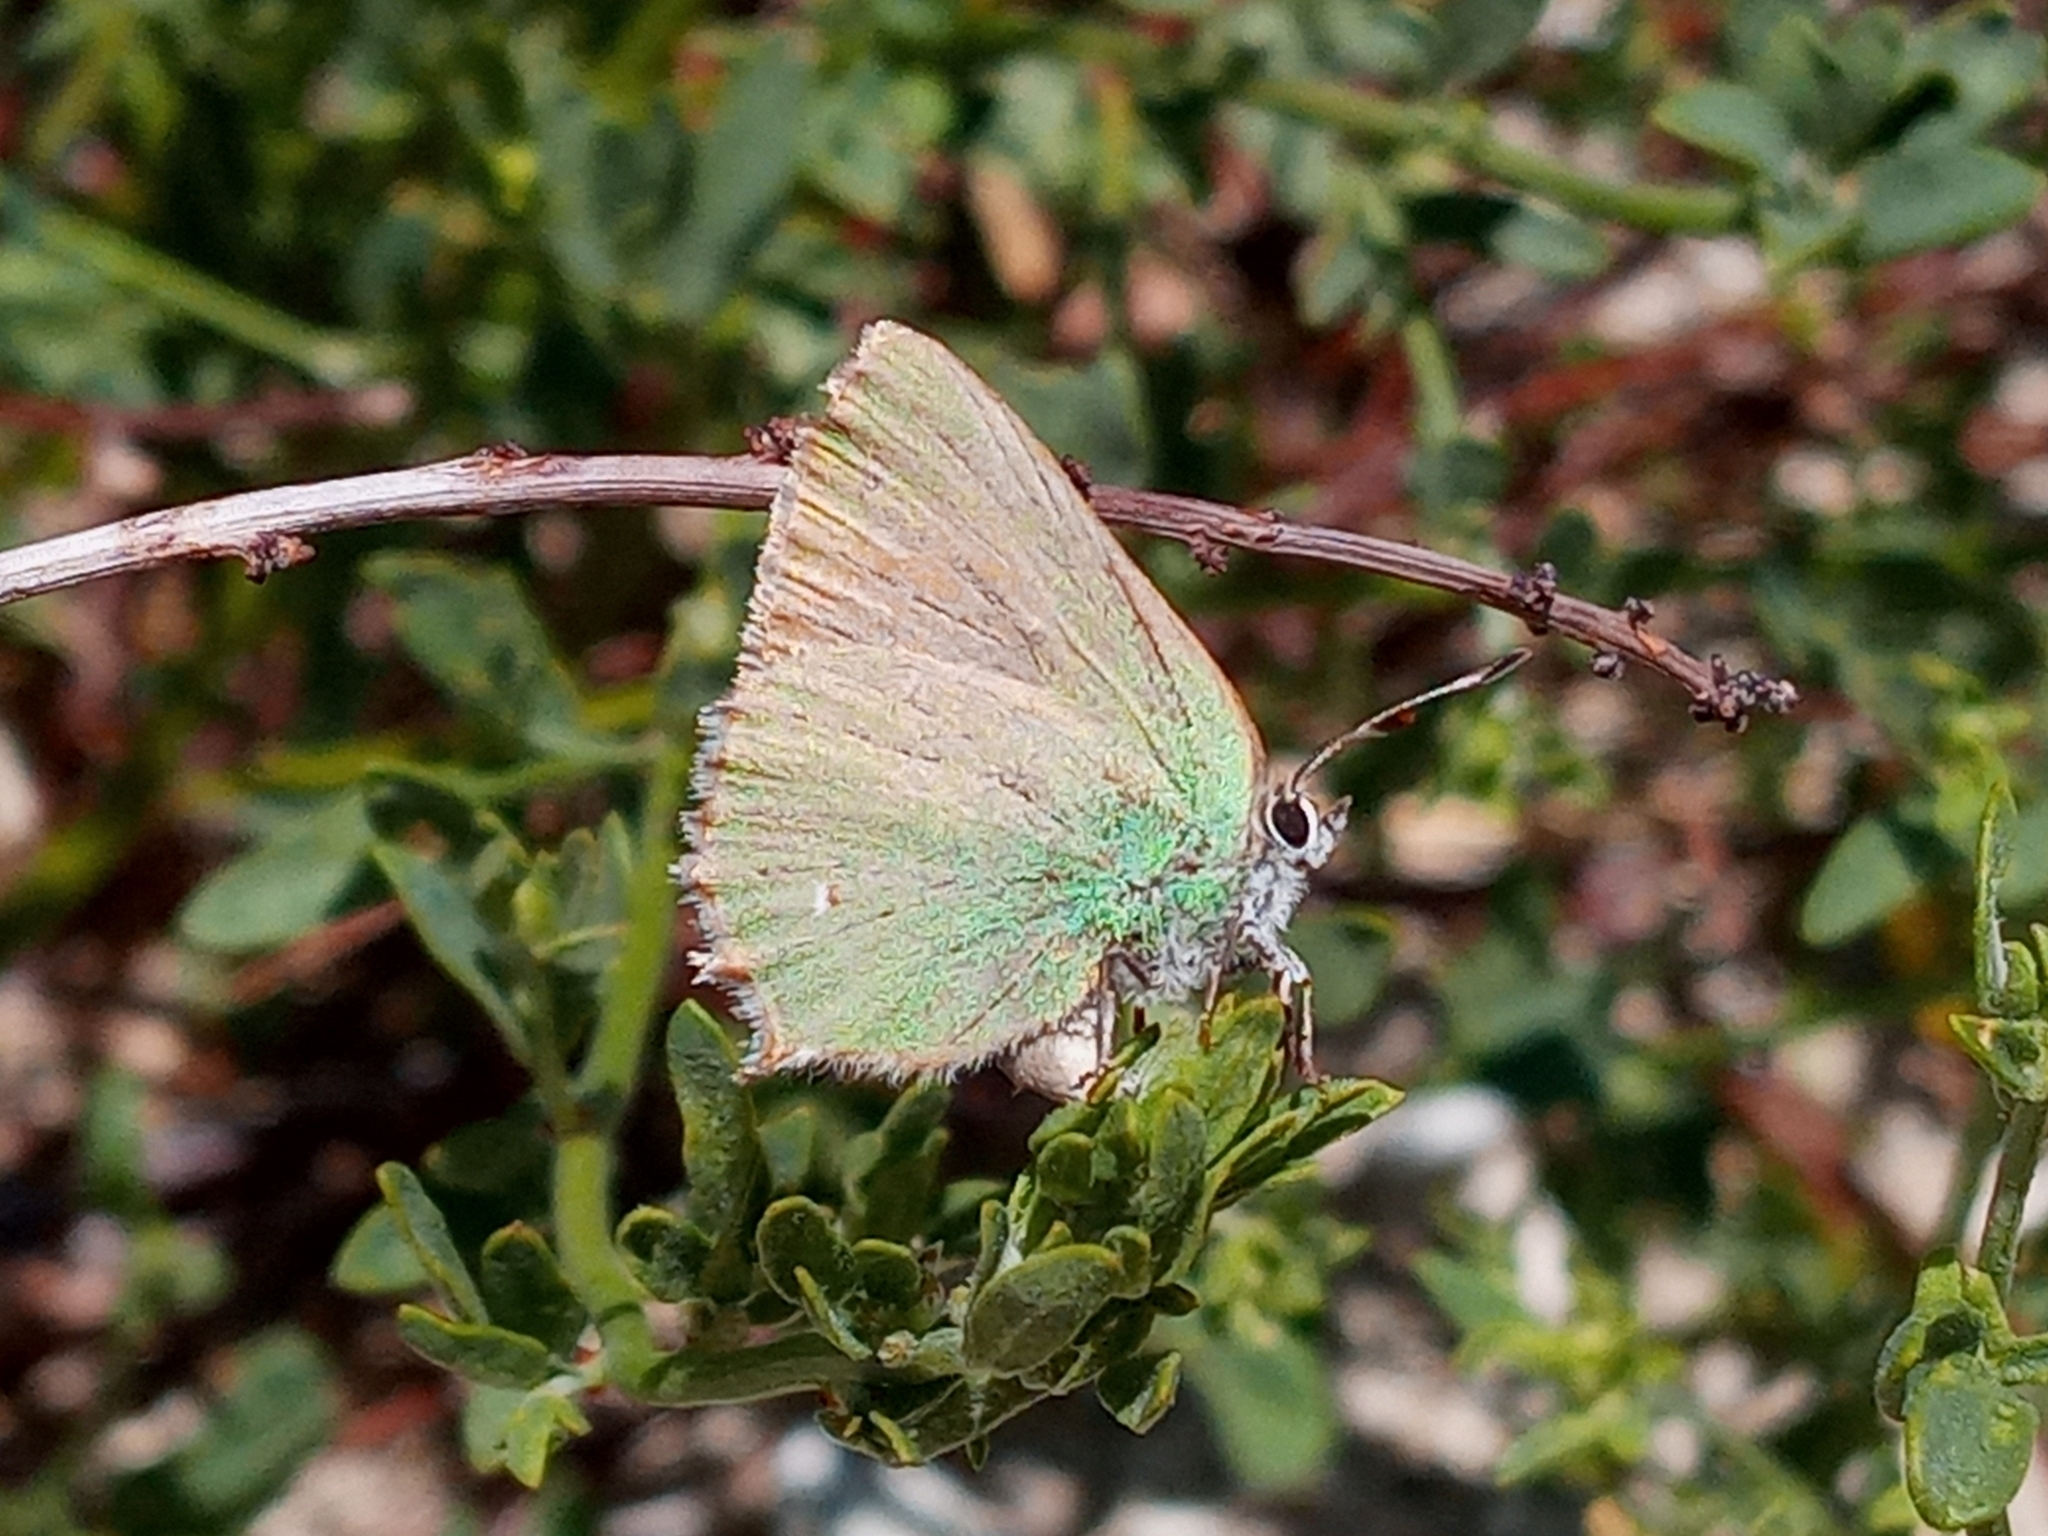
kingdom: Animalia
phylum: Arthropoda
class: Insecta
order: Lepidoptera
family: Lycaenidae
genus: Callophrys
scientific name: Callophrys dumetorum
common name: Bramble hairstreak
